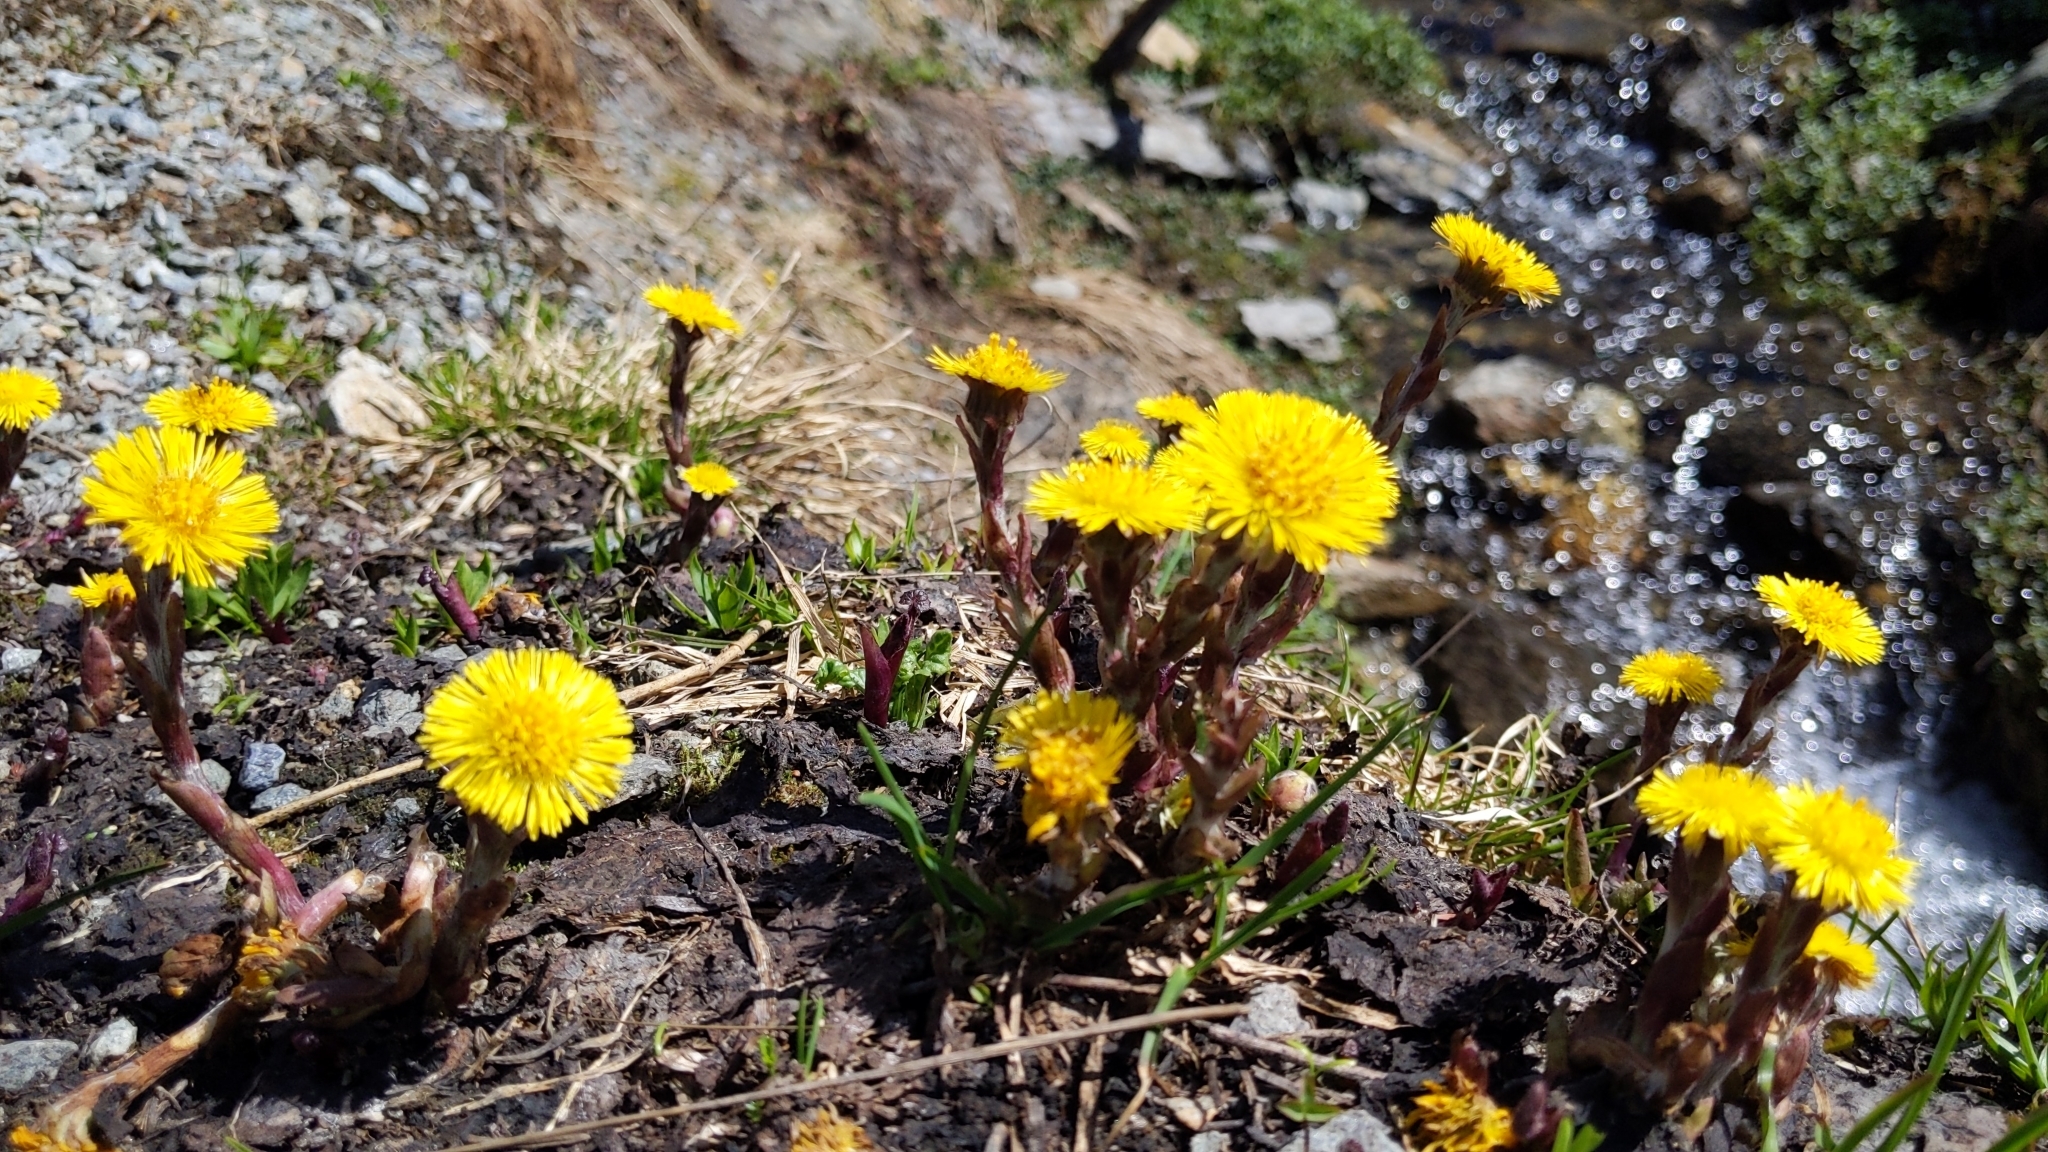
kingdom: Plantae
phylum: Tracheophyta
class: Magnoliopsida
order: Asterales
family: Asteraceae
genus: Tussilago
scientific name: Tussilago farfara
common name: Coltsfoot
